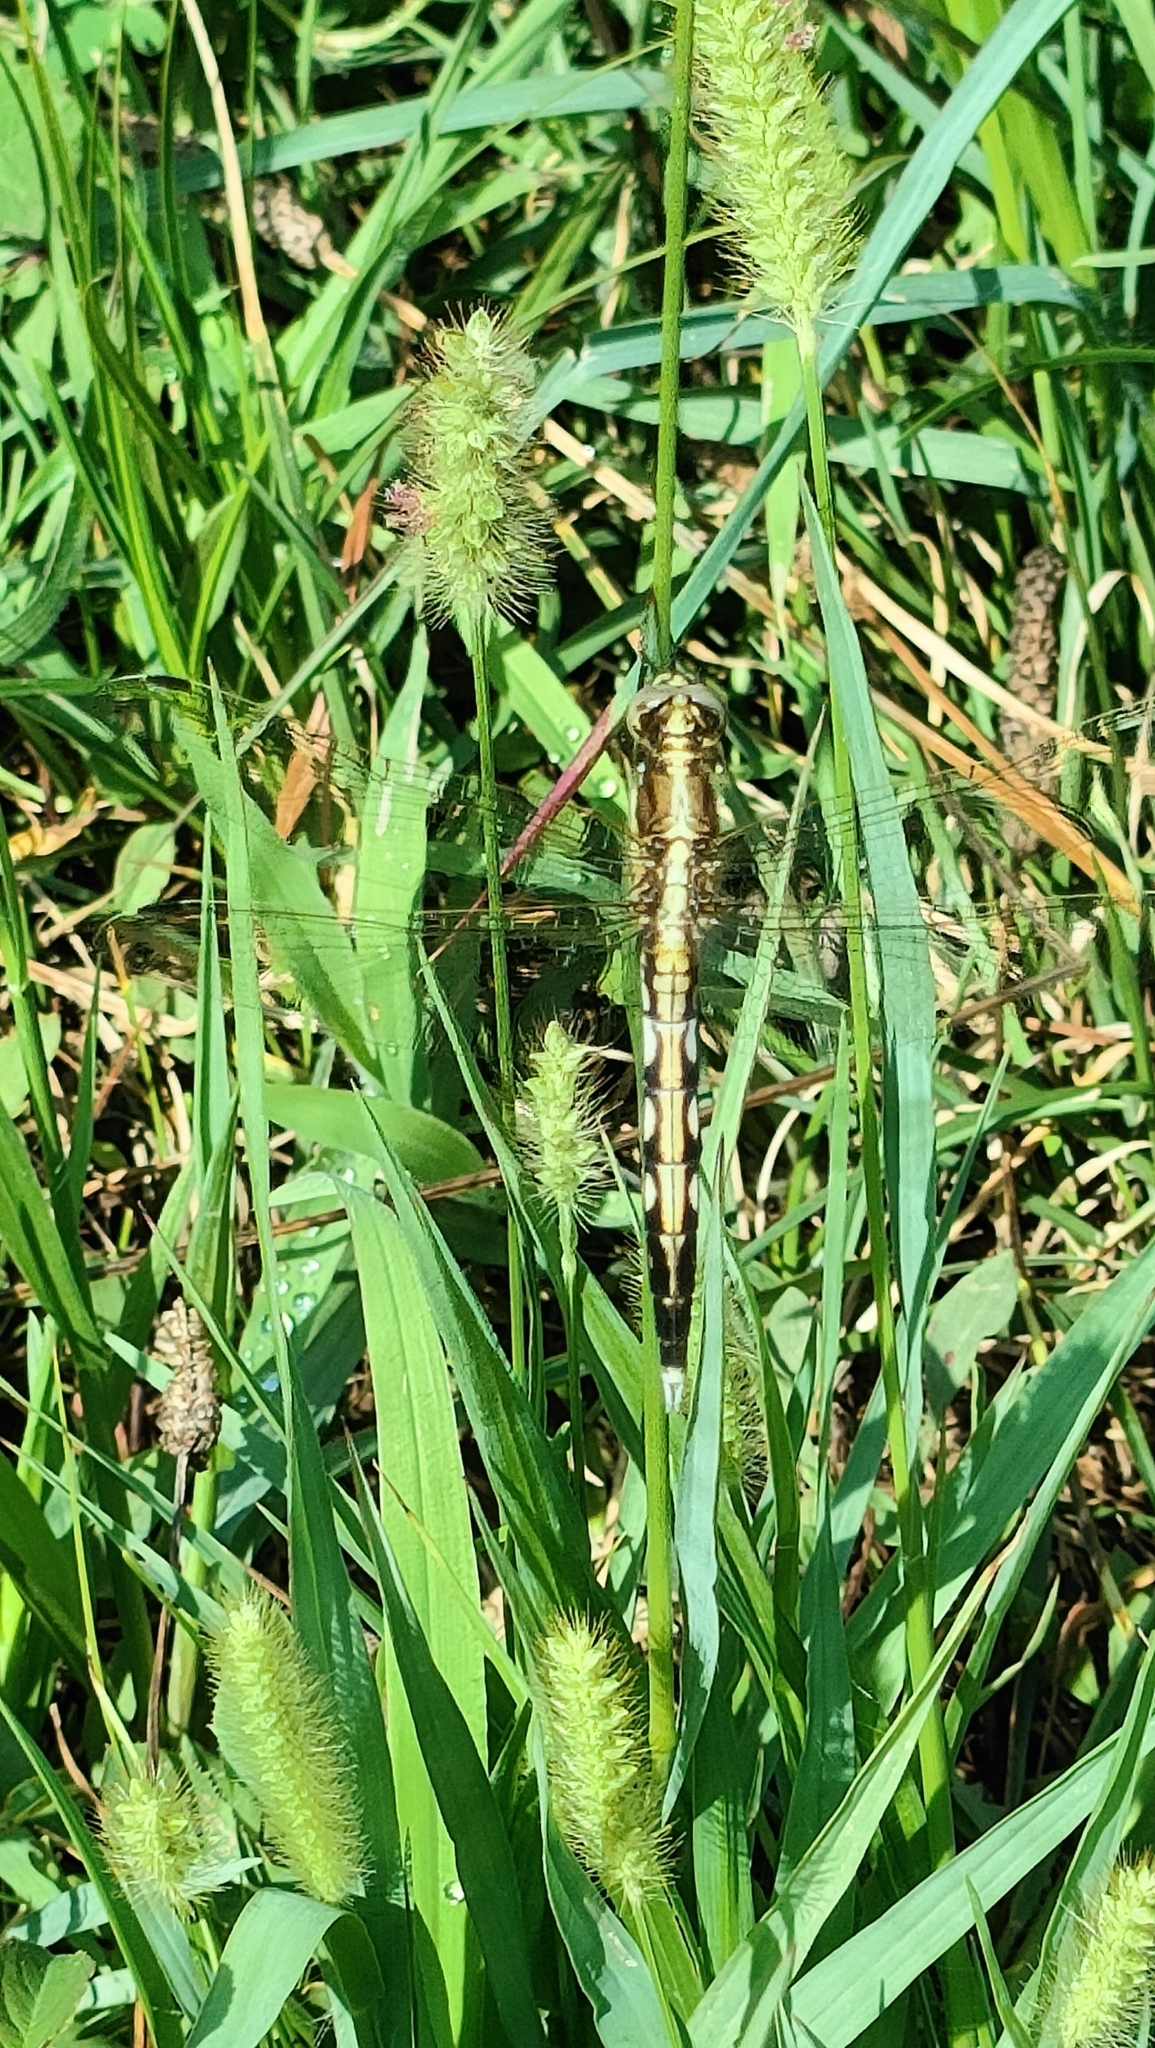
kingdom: Animalia
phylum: Arthropoda
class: Insecta
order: Odonata
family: Libellulidae
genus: Orthetrum
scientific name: Orthetrum albistylum
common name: White-tailed skimmer
